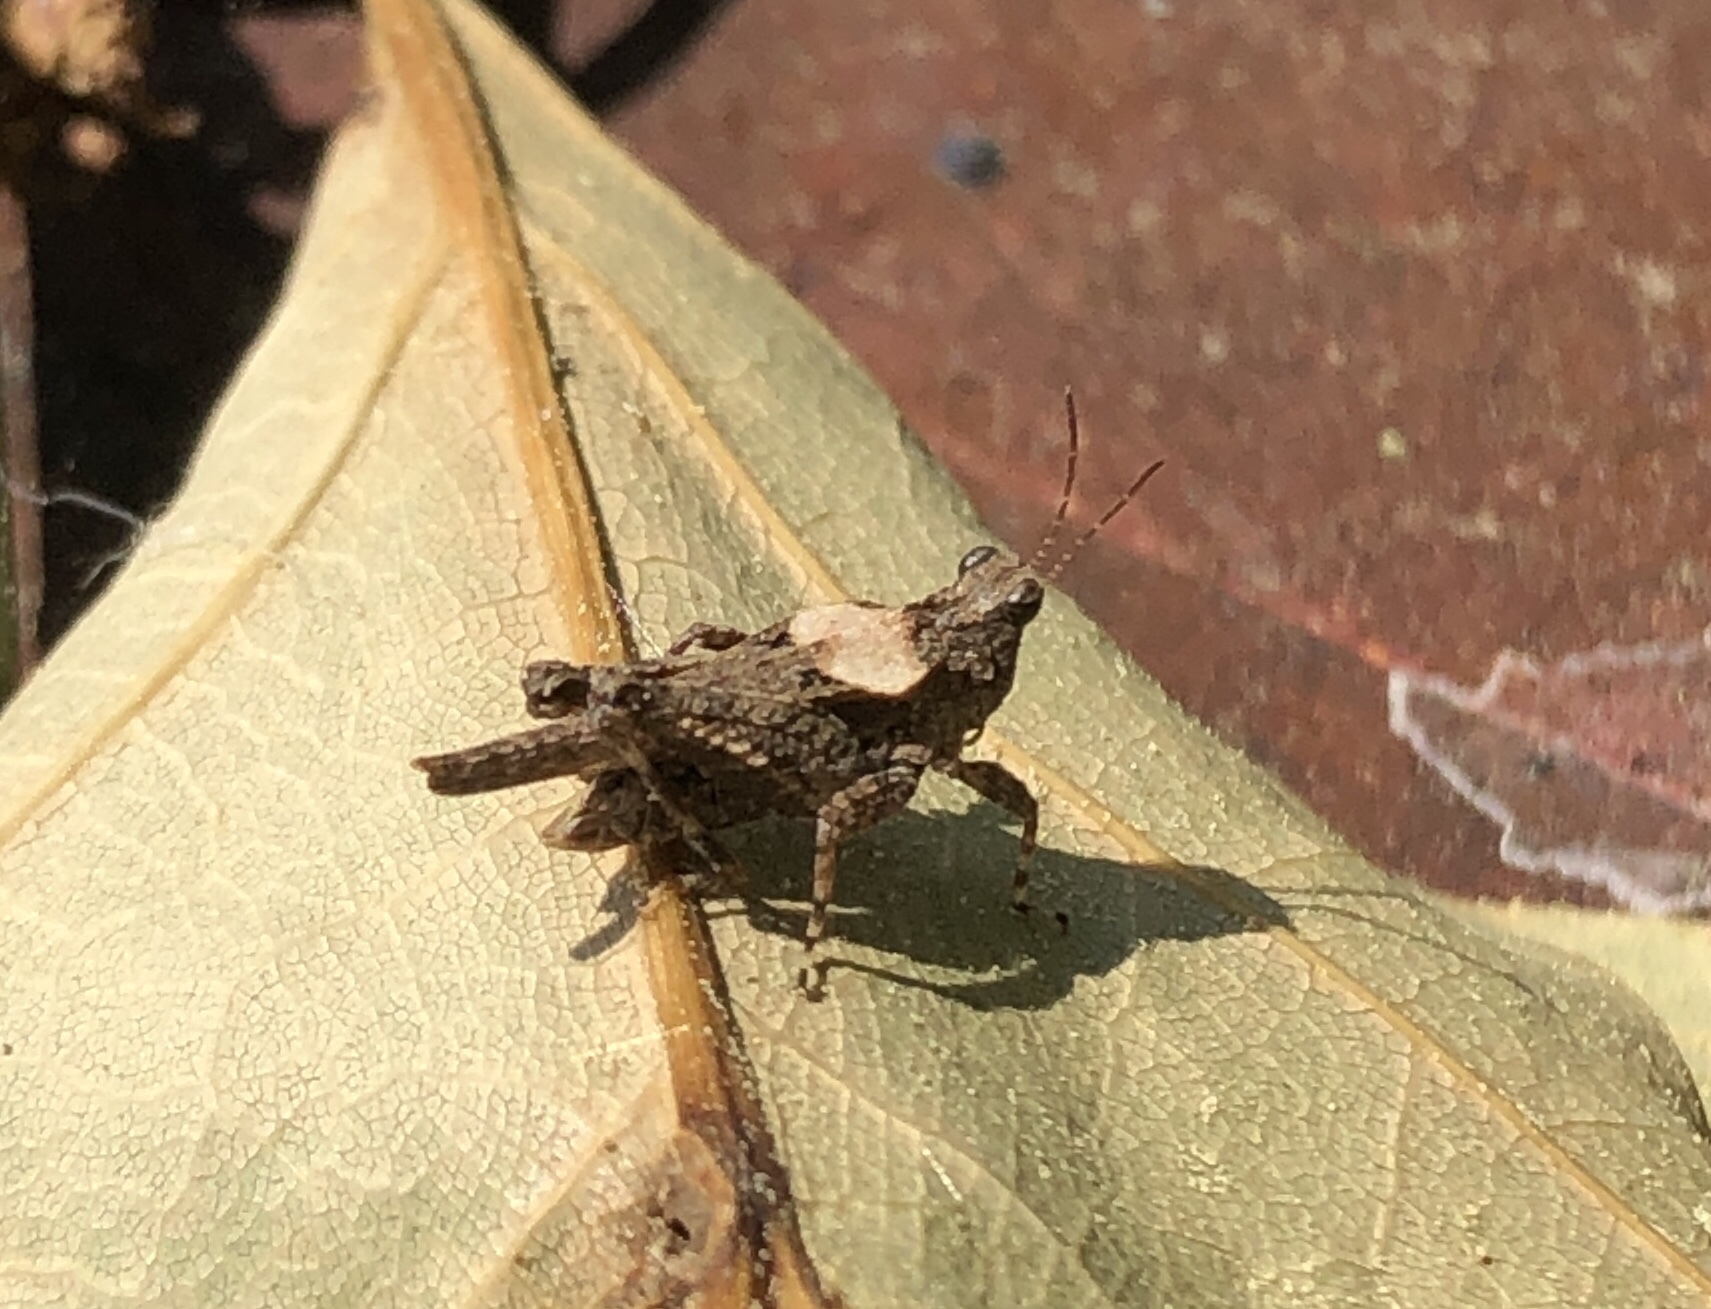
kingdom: Animalia
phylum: Arthropoda
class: Insecta
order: Orthoptera
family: Tetrigidae
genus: Tetrix
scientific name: Tetrix arenosa
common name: Ornate pygmy grasshopper
